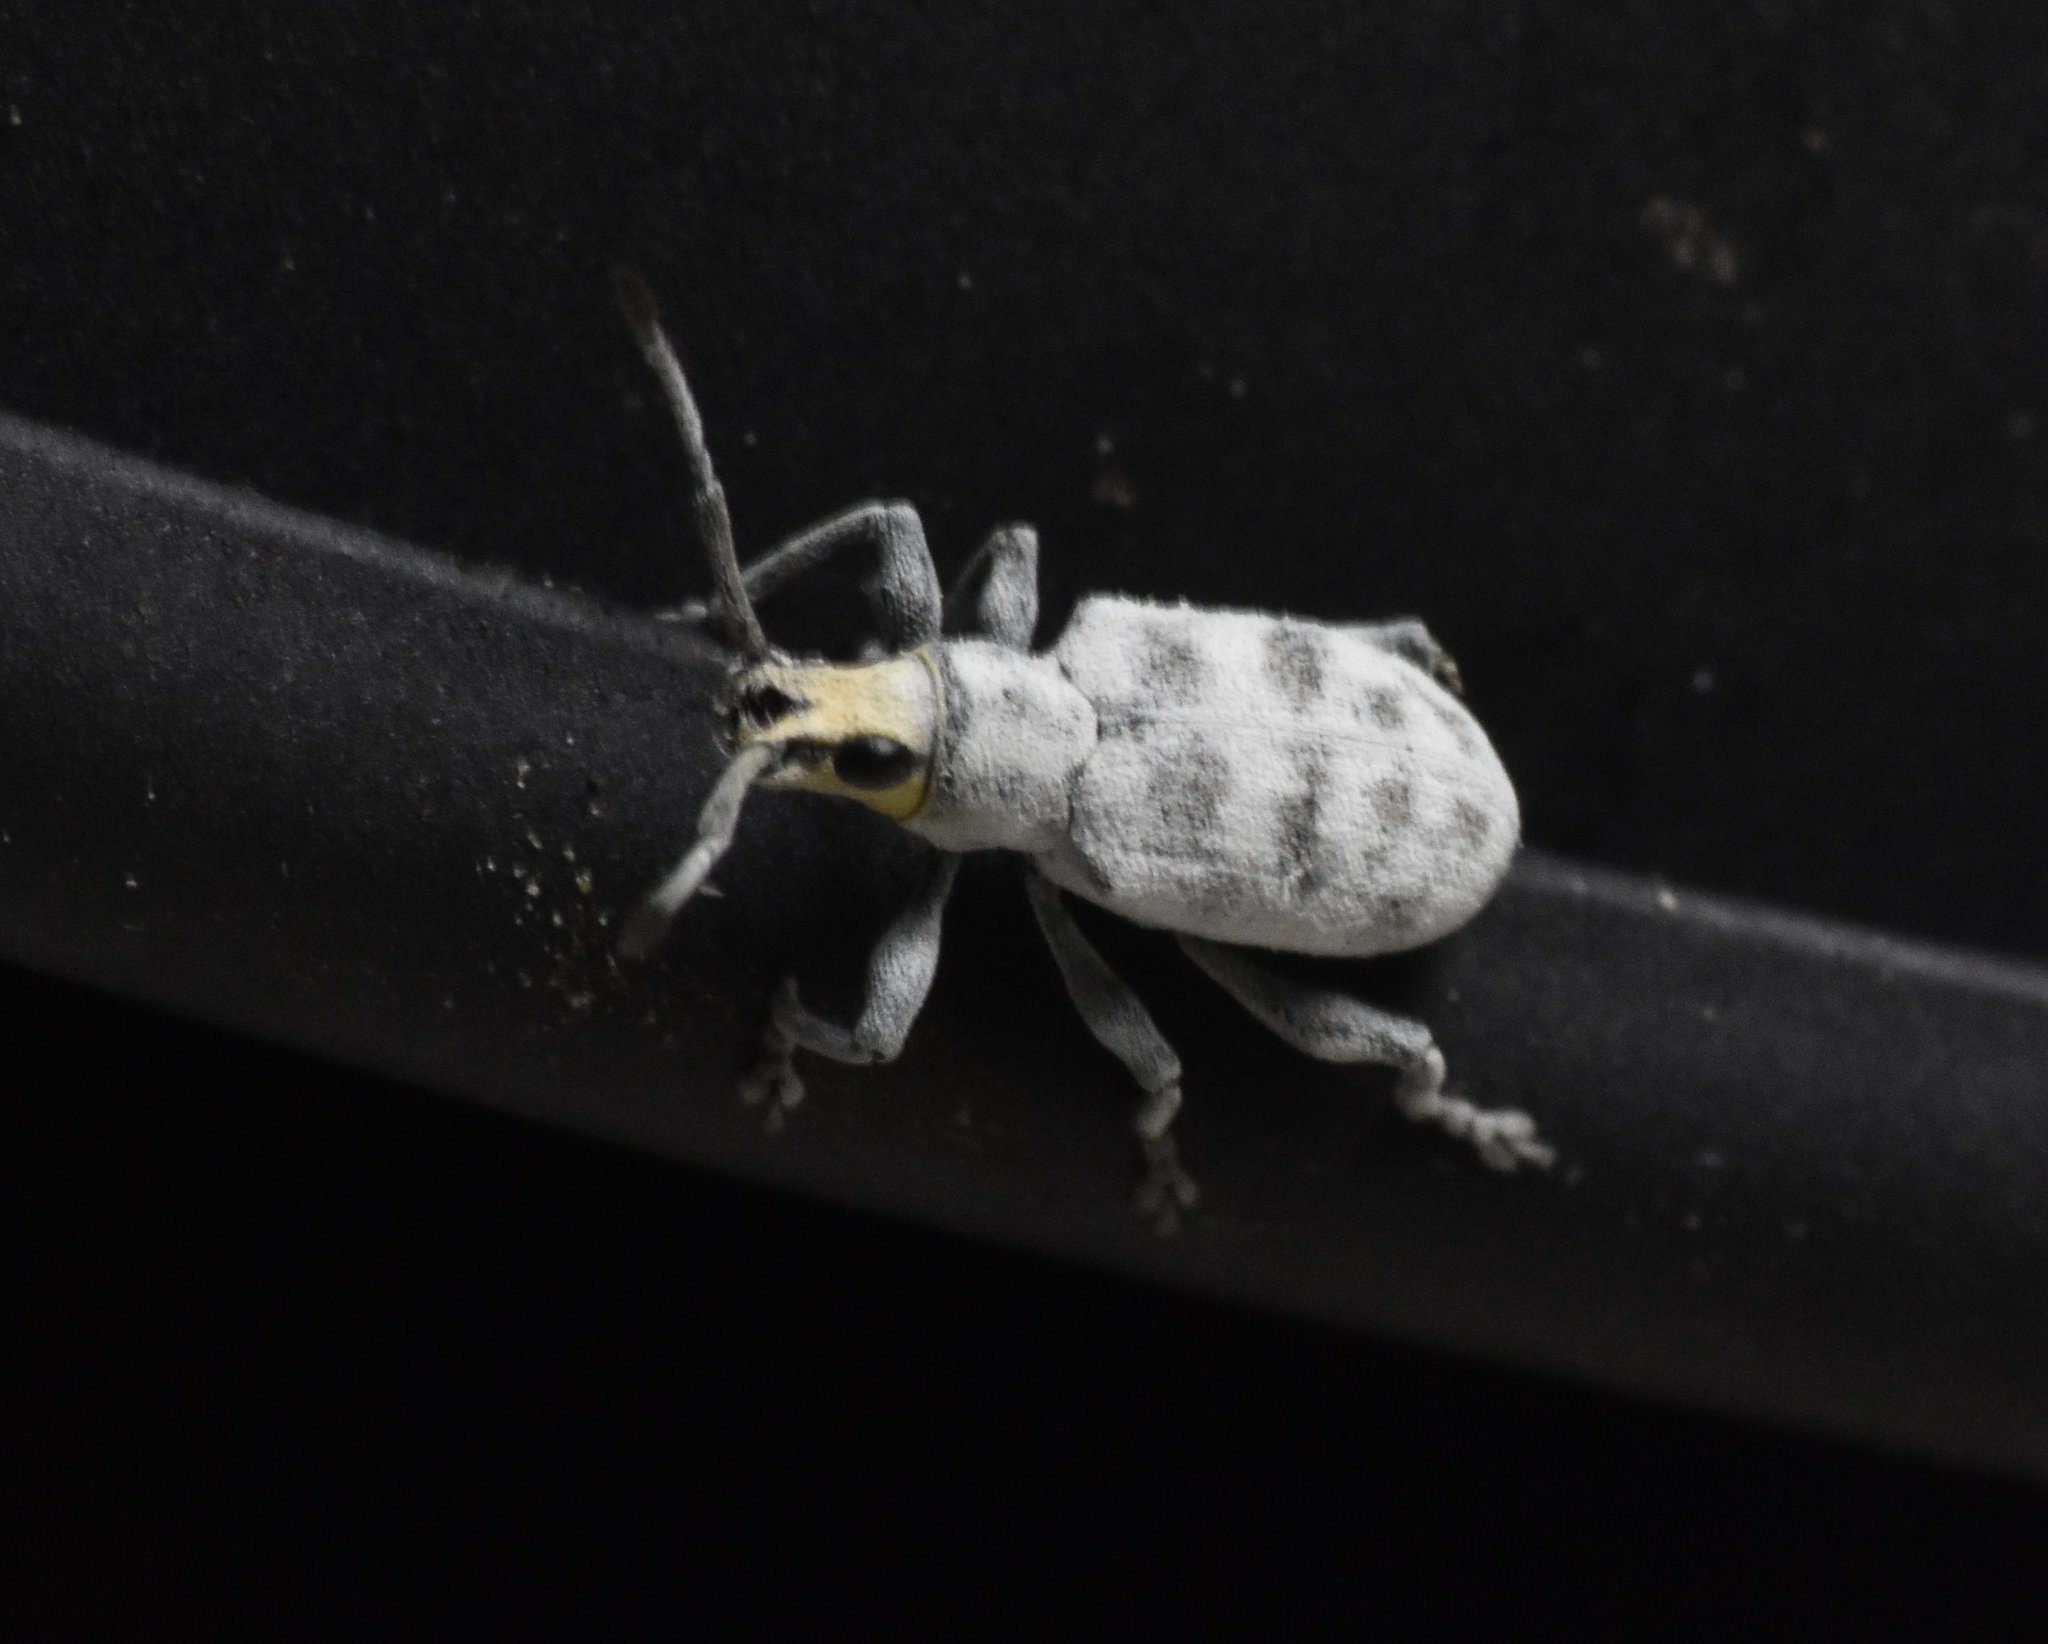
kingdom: Animalia
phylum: Arthropoda
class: Insecta
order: Coleoptera
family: Curculionidae
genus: Myllocerus
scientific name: Myllocerus undecimpustulatus
